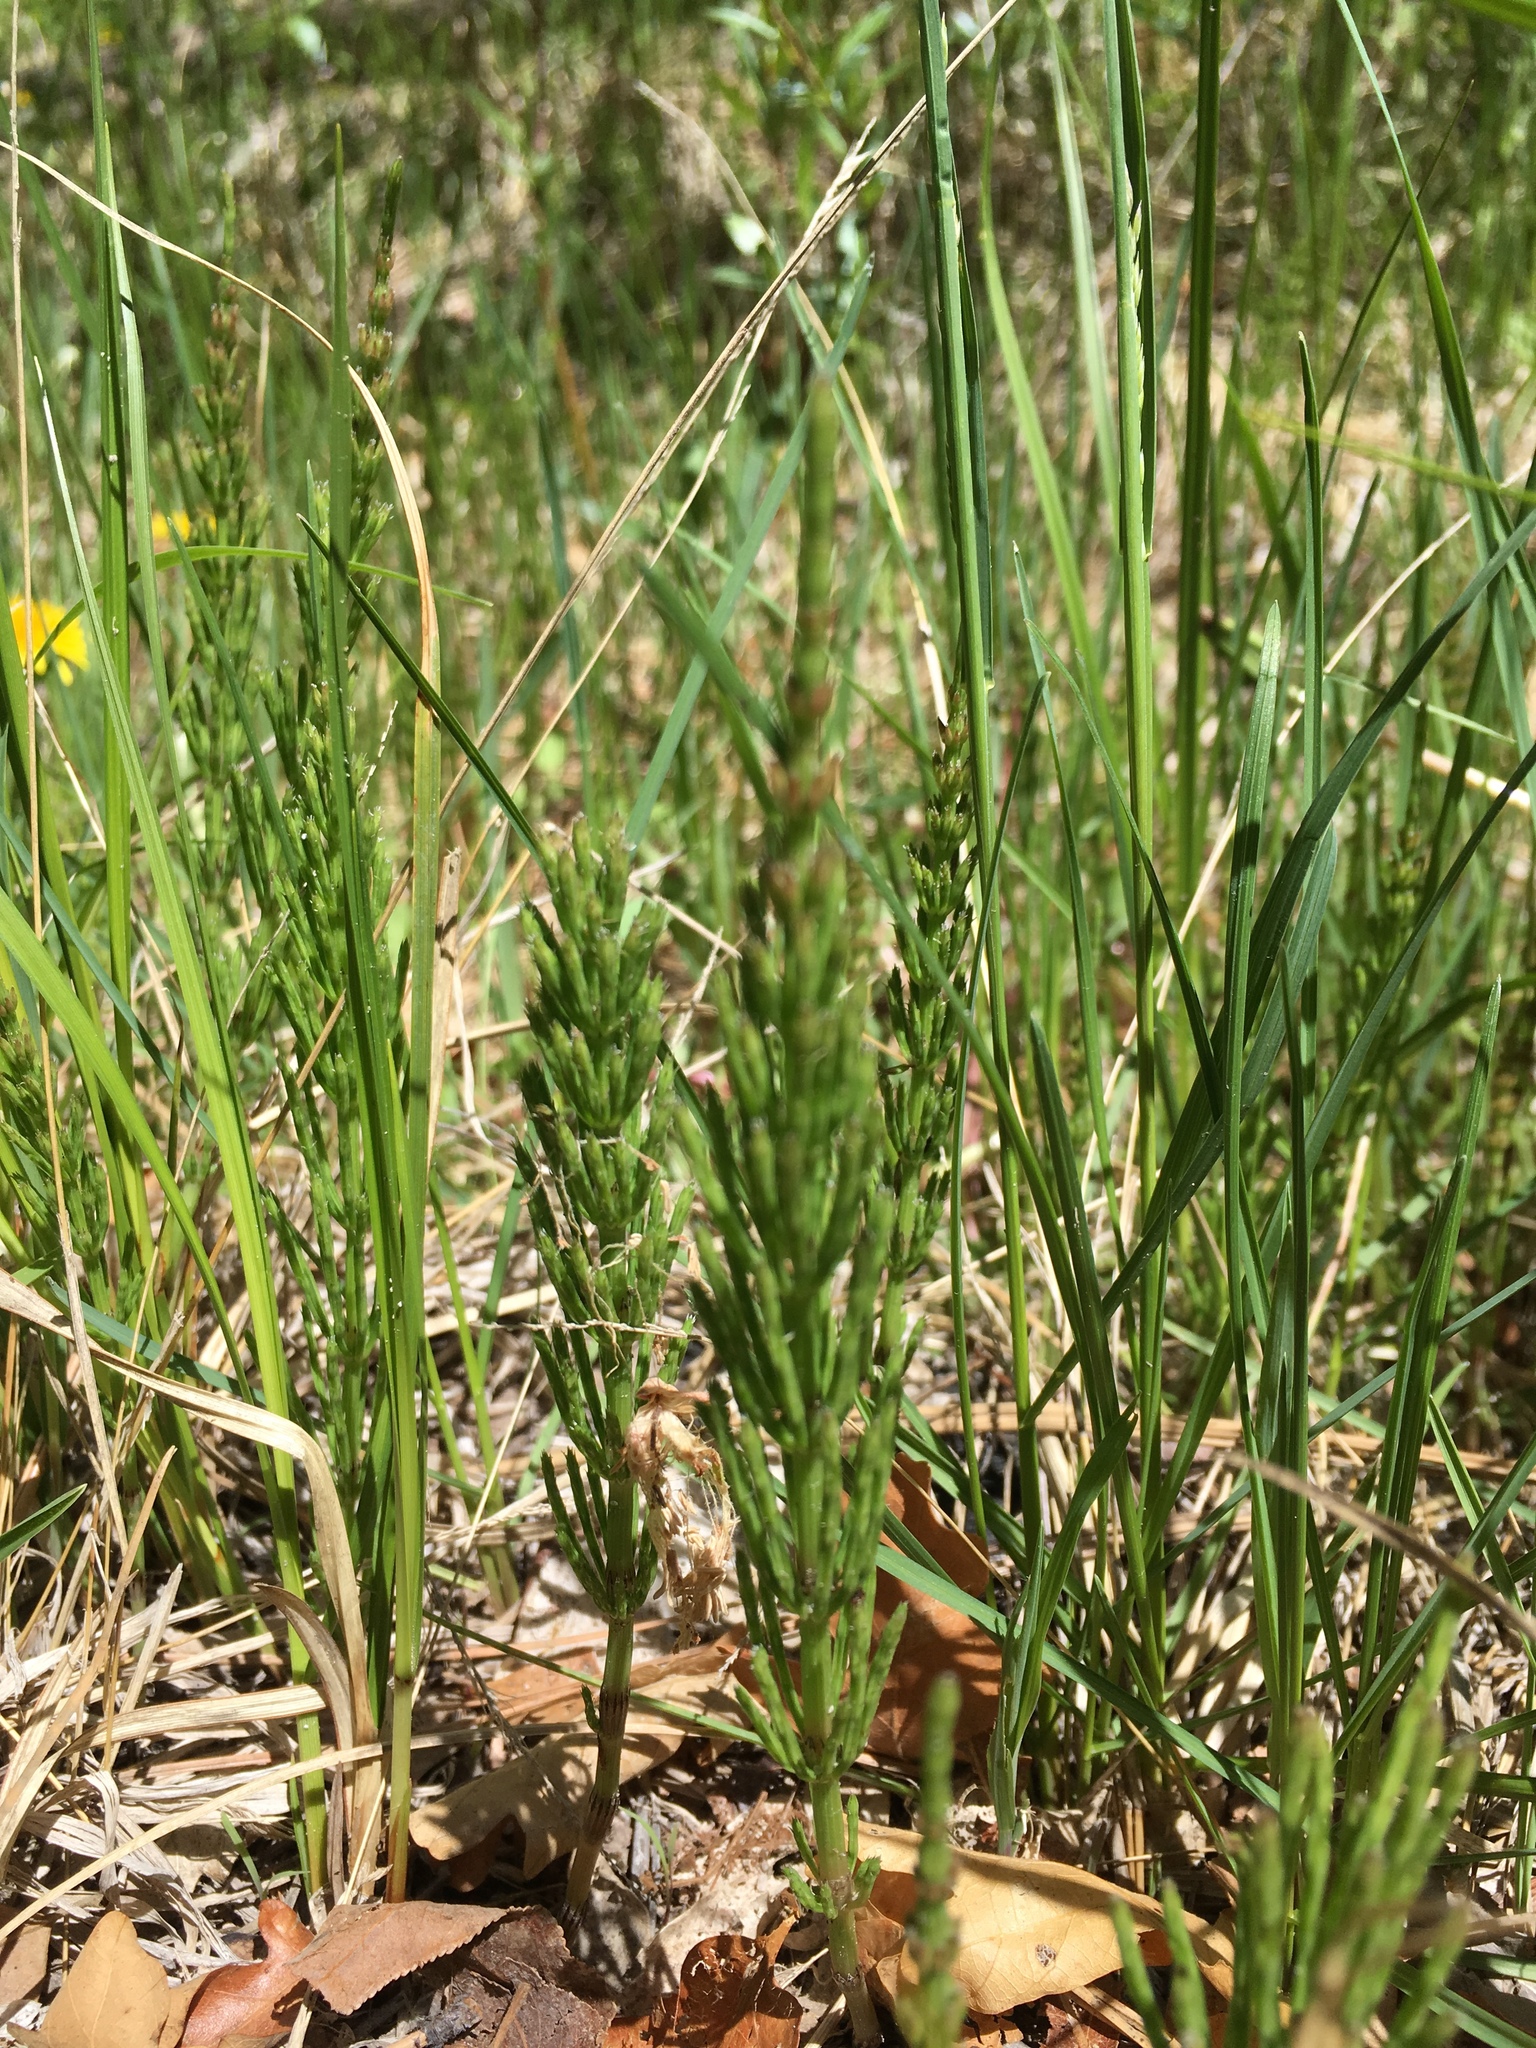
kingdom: Plantae
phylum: Tracheophyta
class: Polypodiopsida
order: Equisetales
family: Equisetaceae
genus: Equisetum
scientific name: Equisetum arvense
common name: Field horsetail
